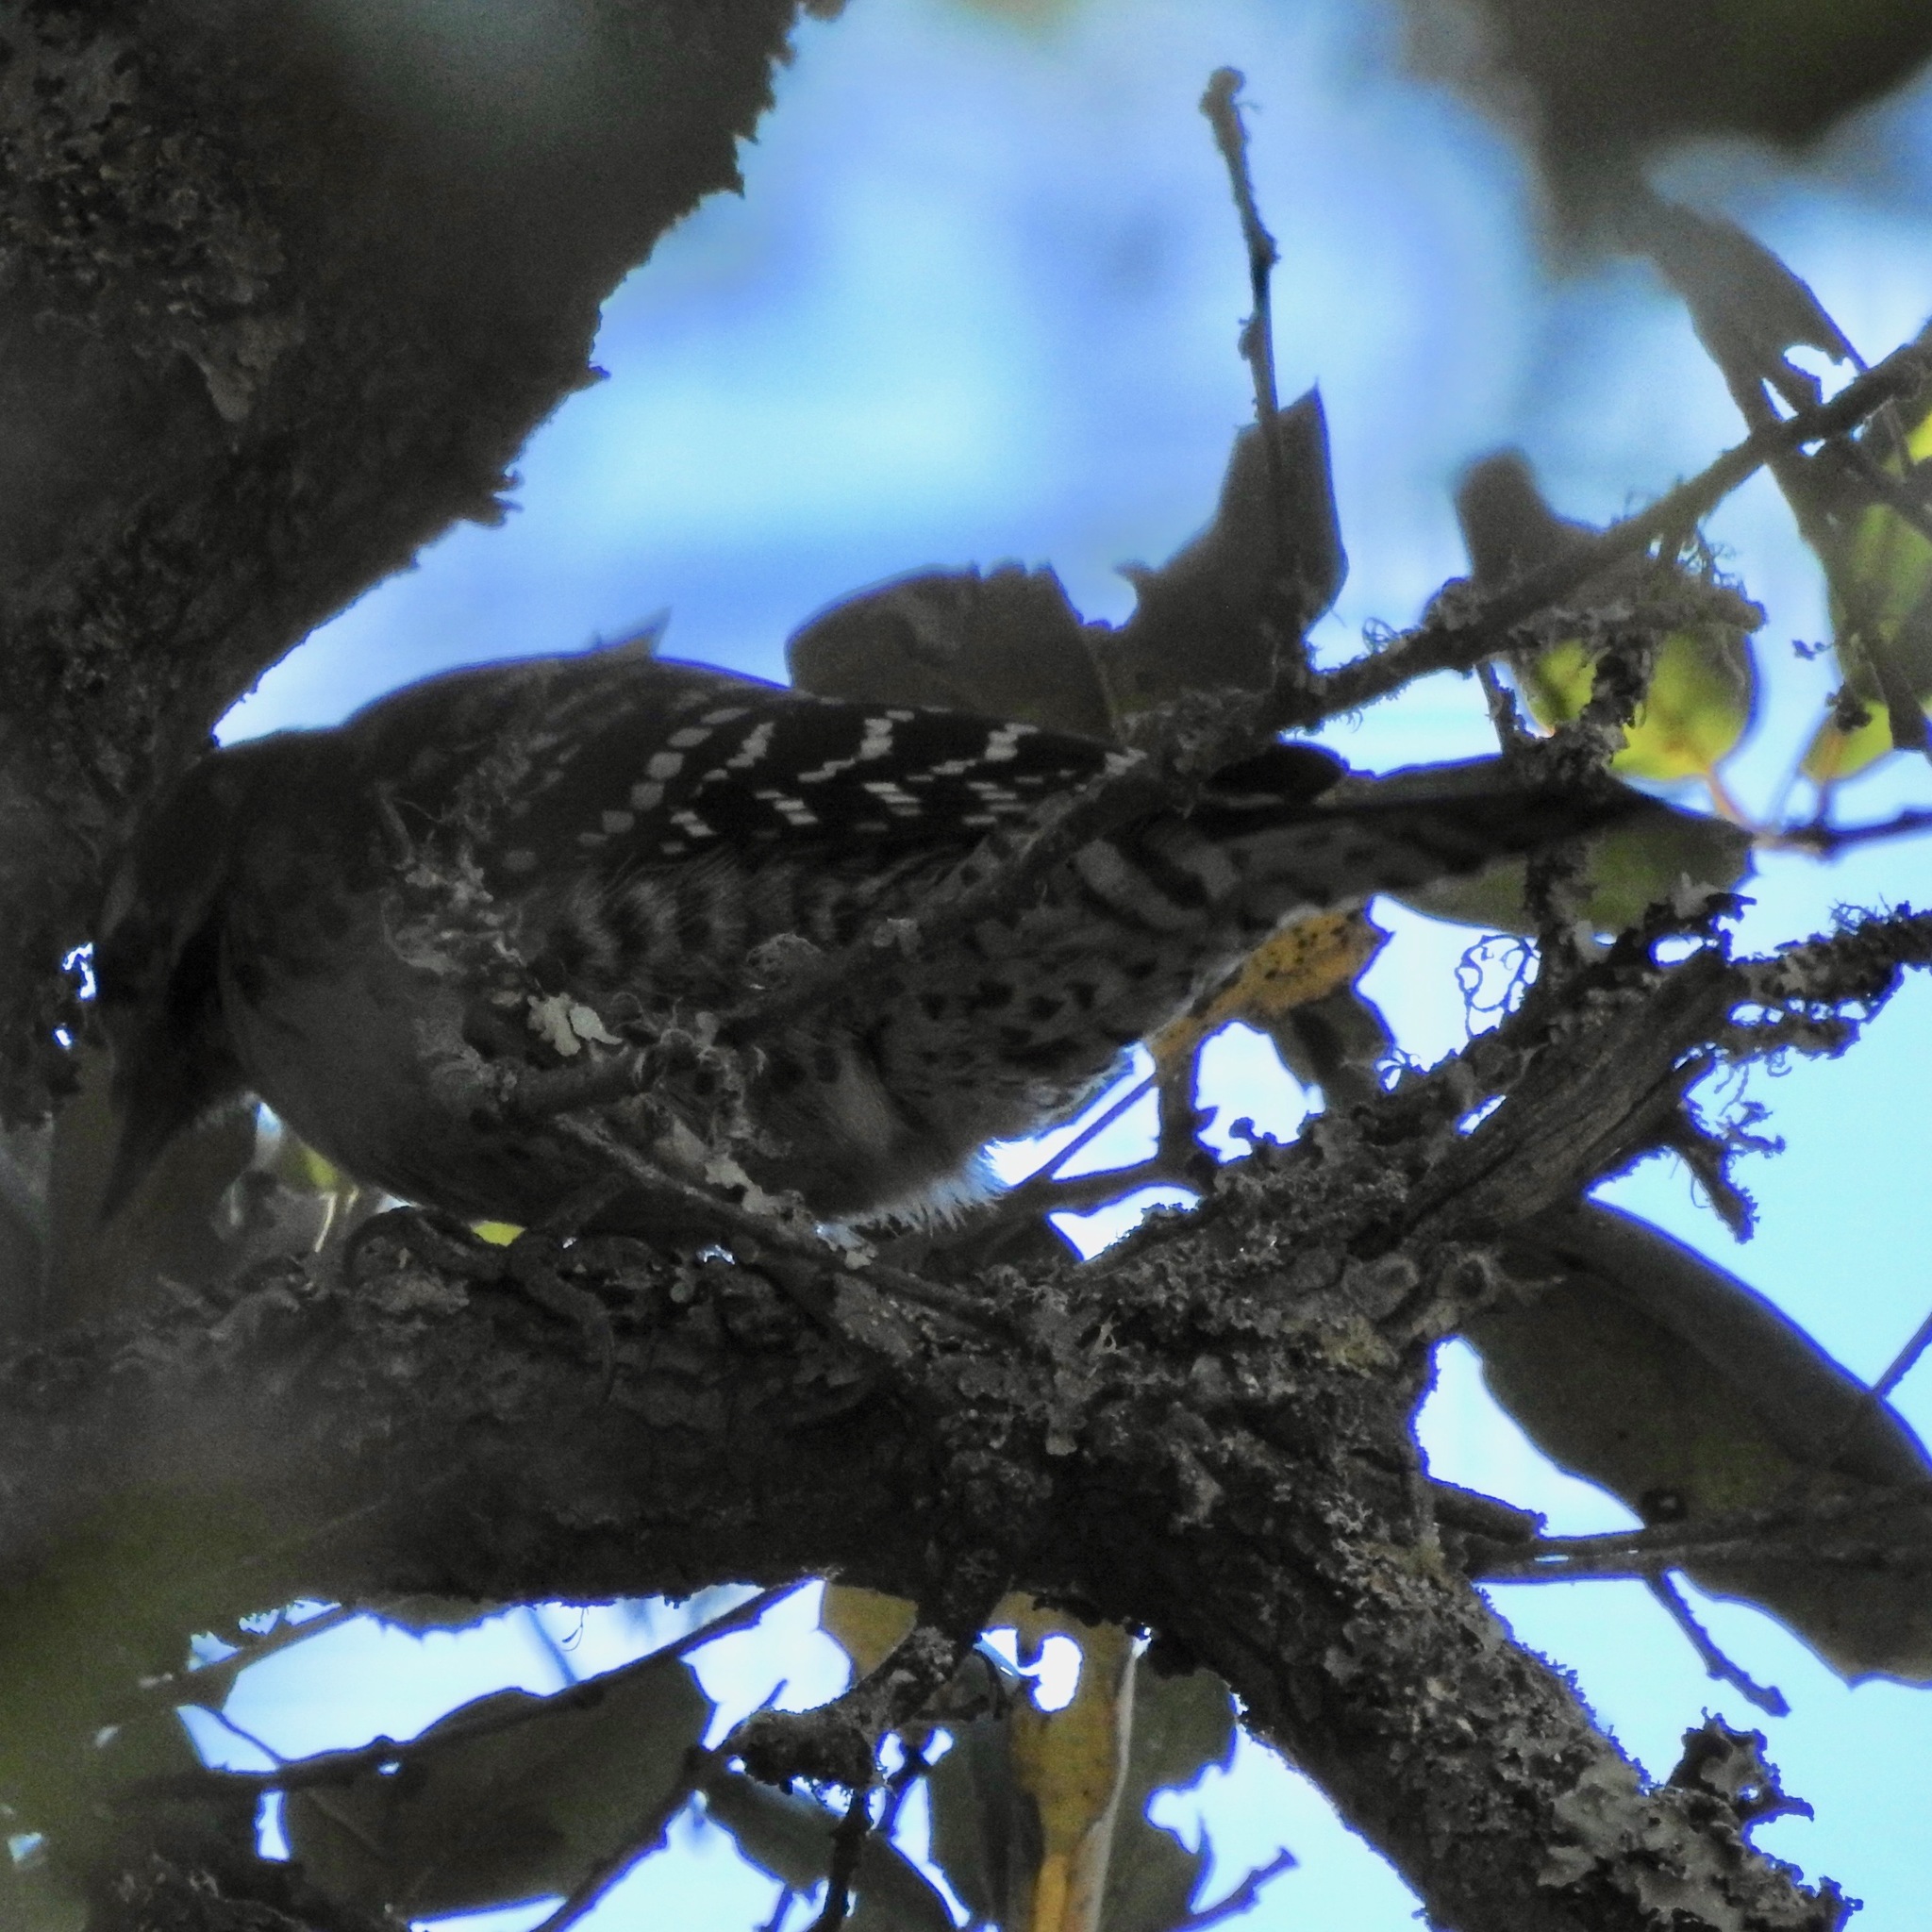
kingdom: Animalia
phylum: Chordata
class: Aves
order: Piciformes
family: Picidae
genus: Dryobates
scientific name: Dryobates nuttallii
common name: Nuttall's woodpecker
